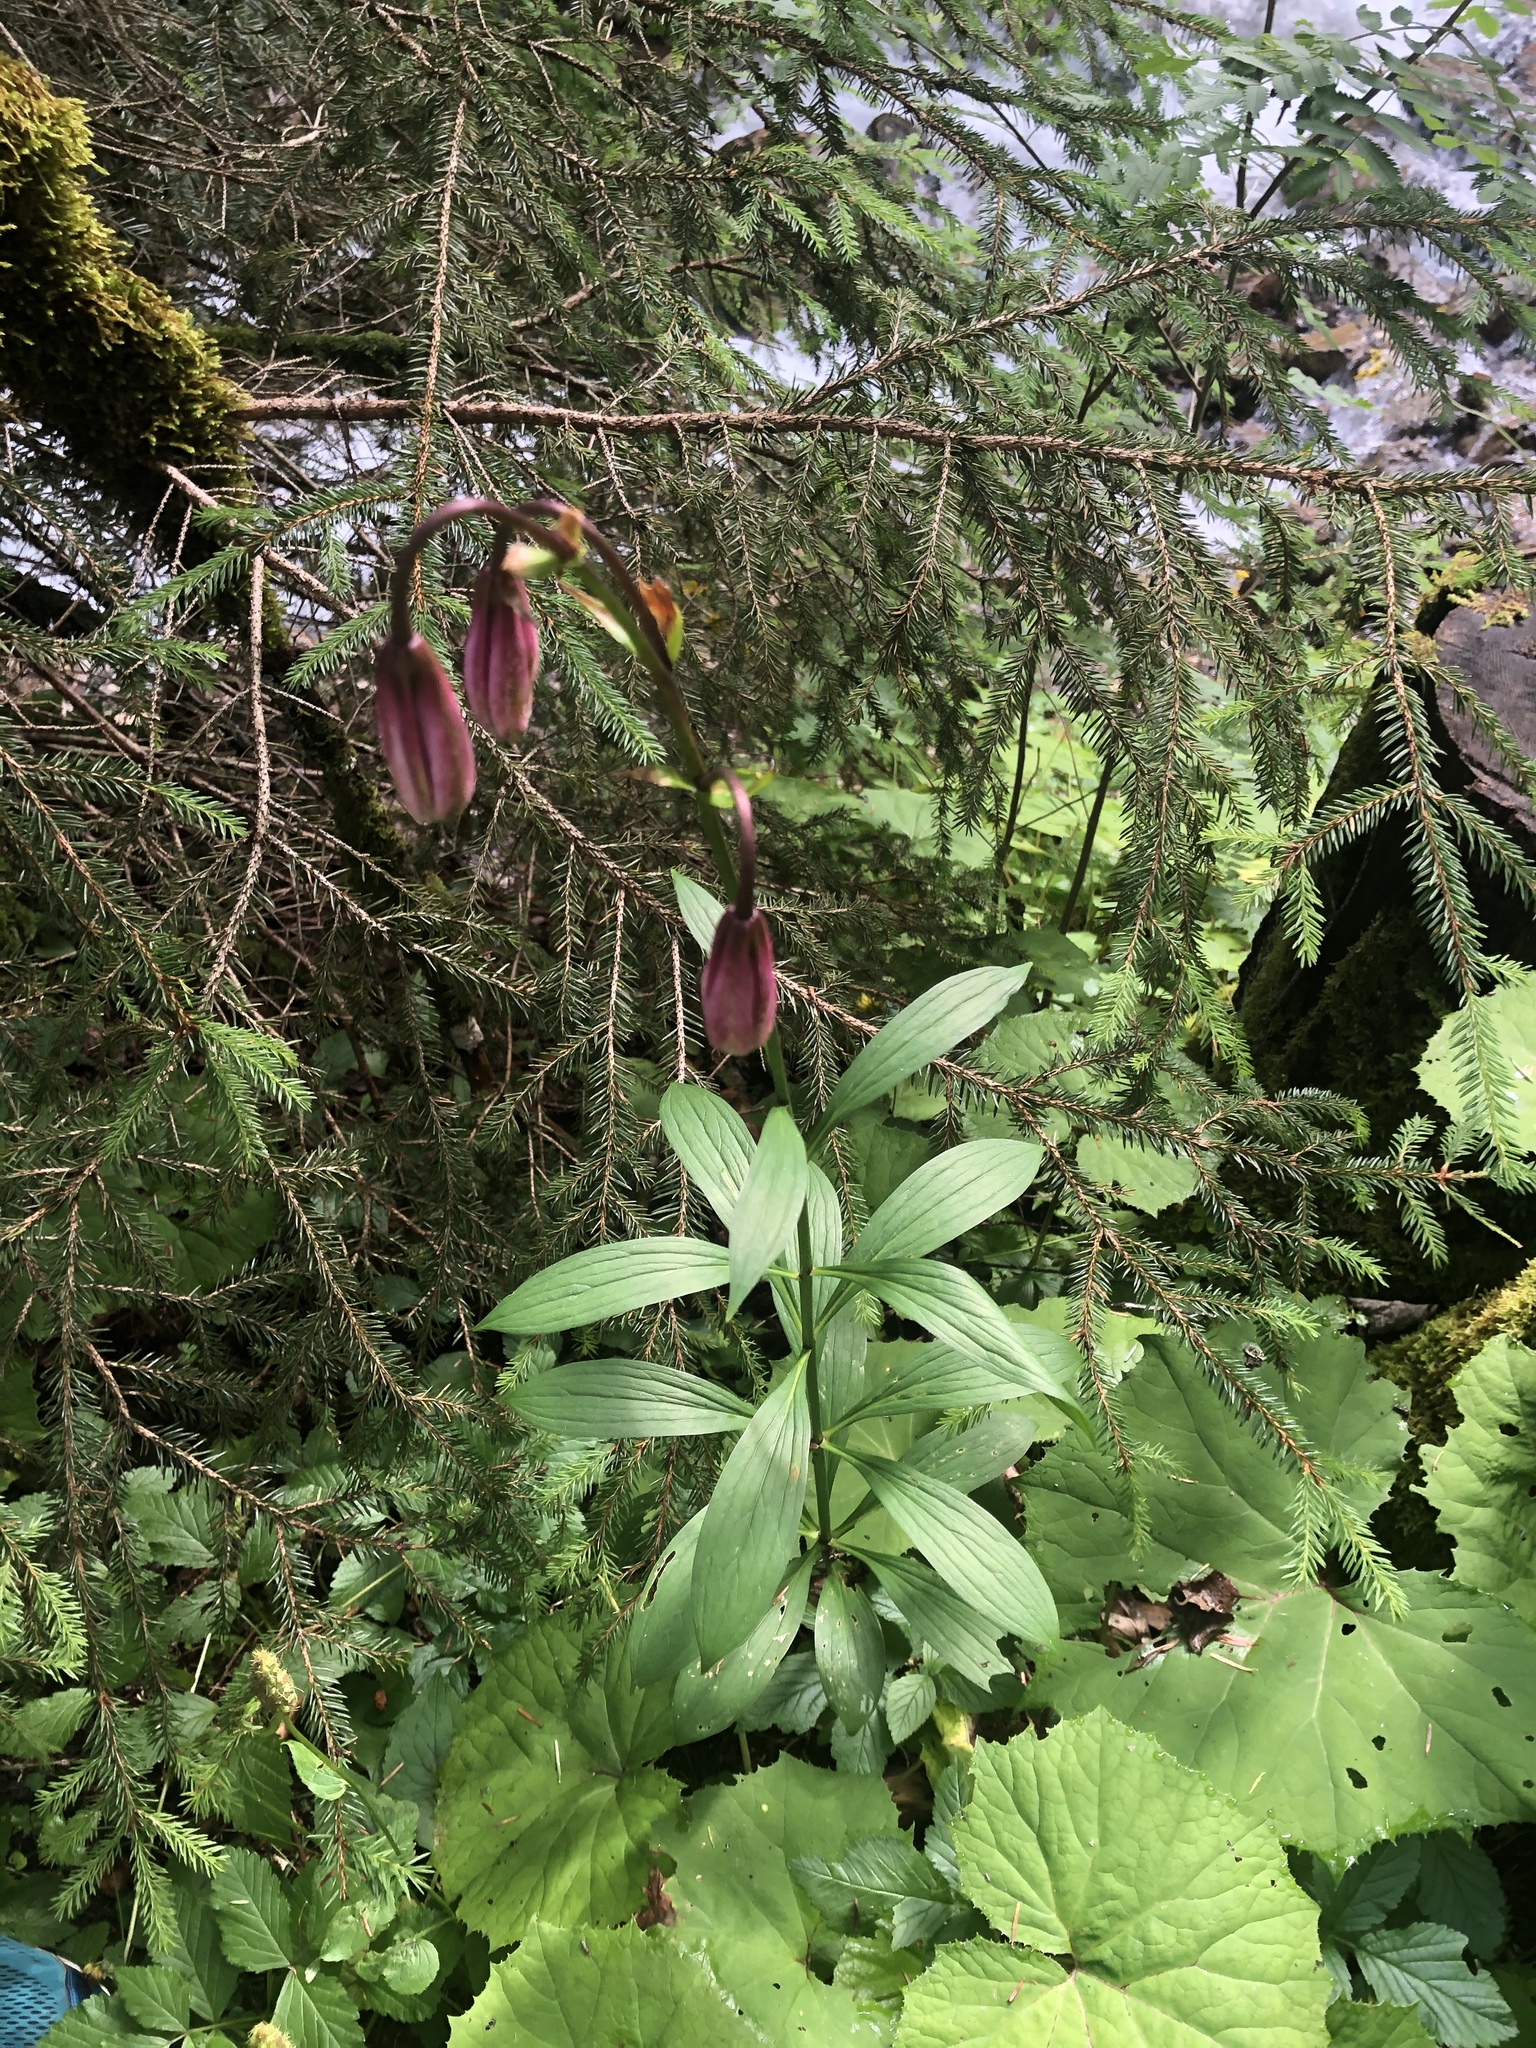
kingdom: Plantae
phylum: Tracheophyta
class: Liliopsida
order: Liliales
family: Liliaceae
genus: Lilium
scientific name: Lilium martagon
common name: Martagon lily
